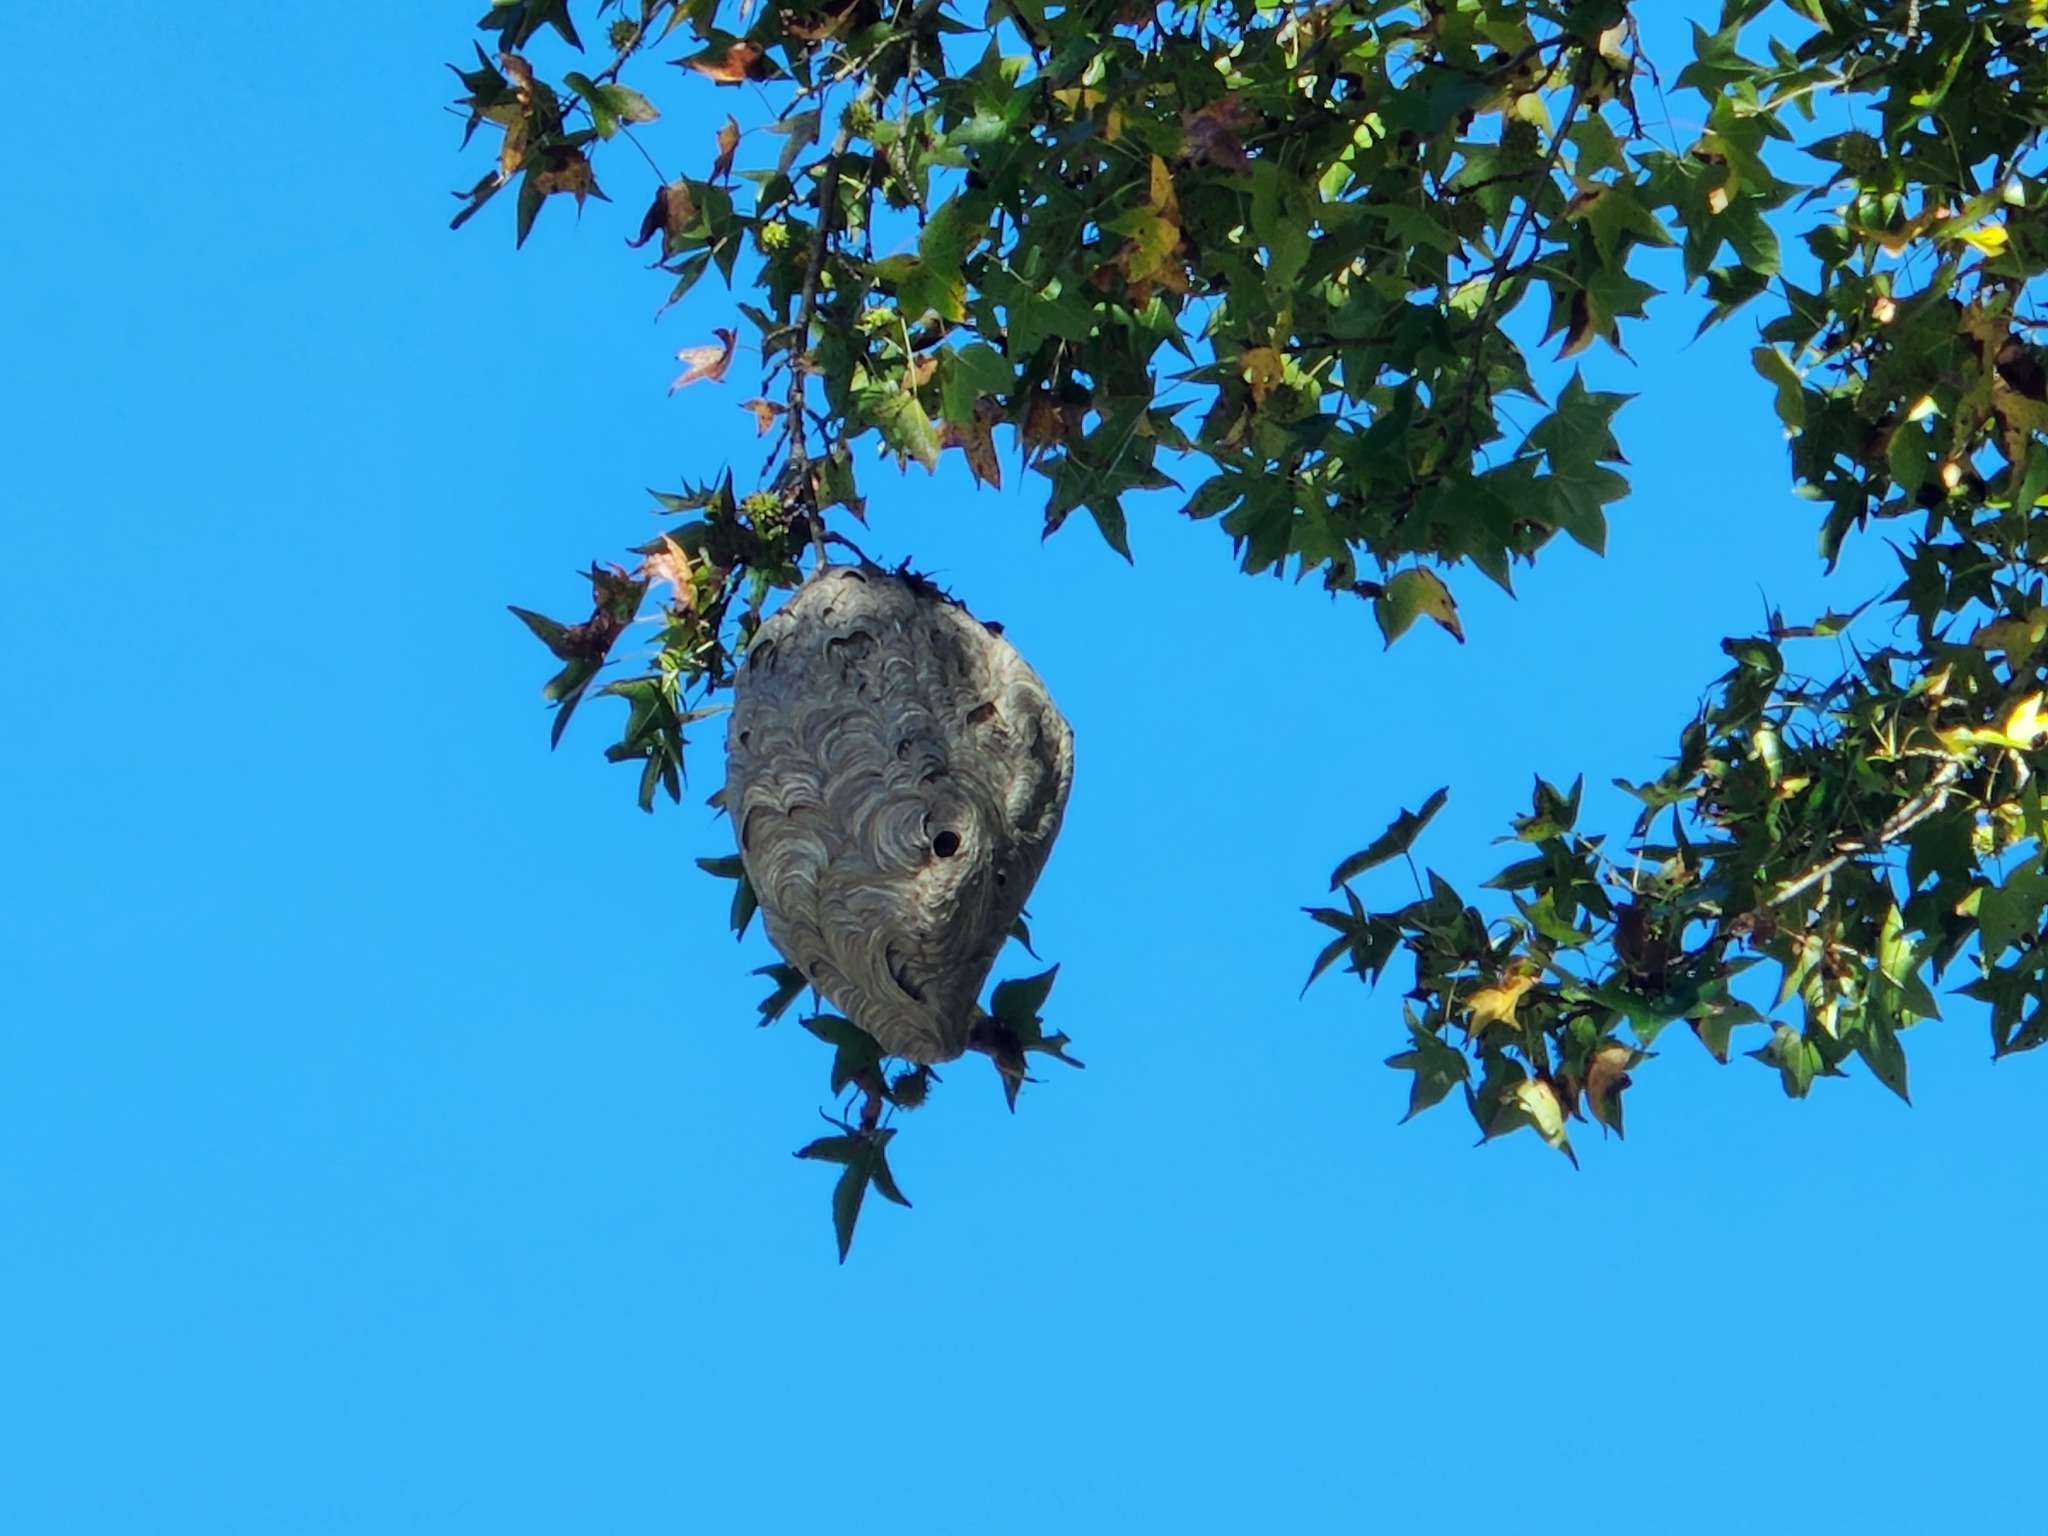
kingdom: Animalia
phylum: Arthropoda
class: Insecta
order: Hymenoptera
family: Vespidae
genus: Dolichovespula
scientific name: Dolichovespula maculata
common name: Bald-faced hornet
